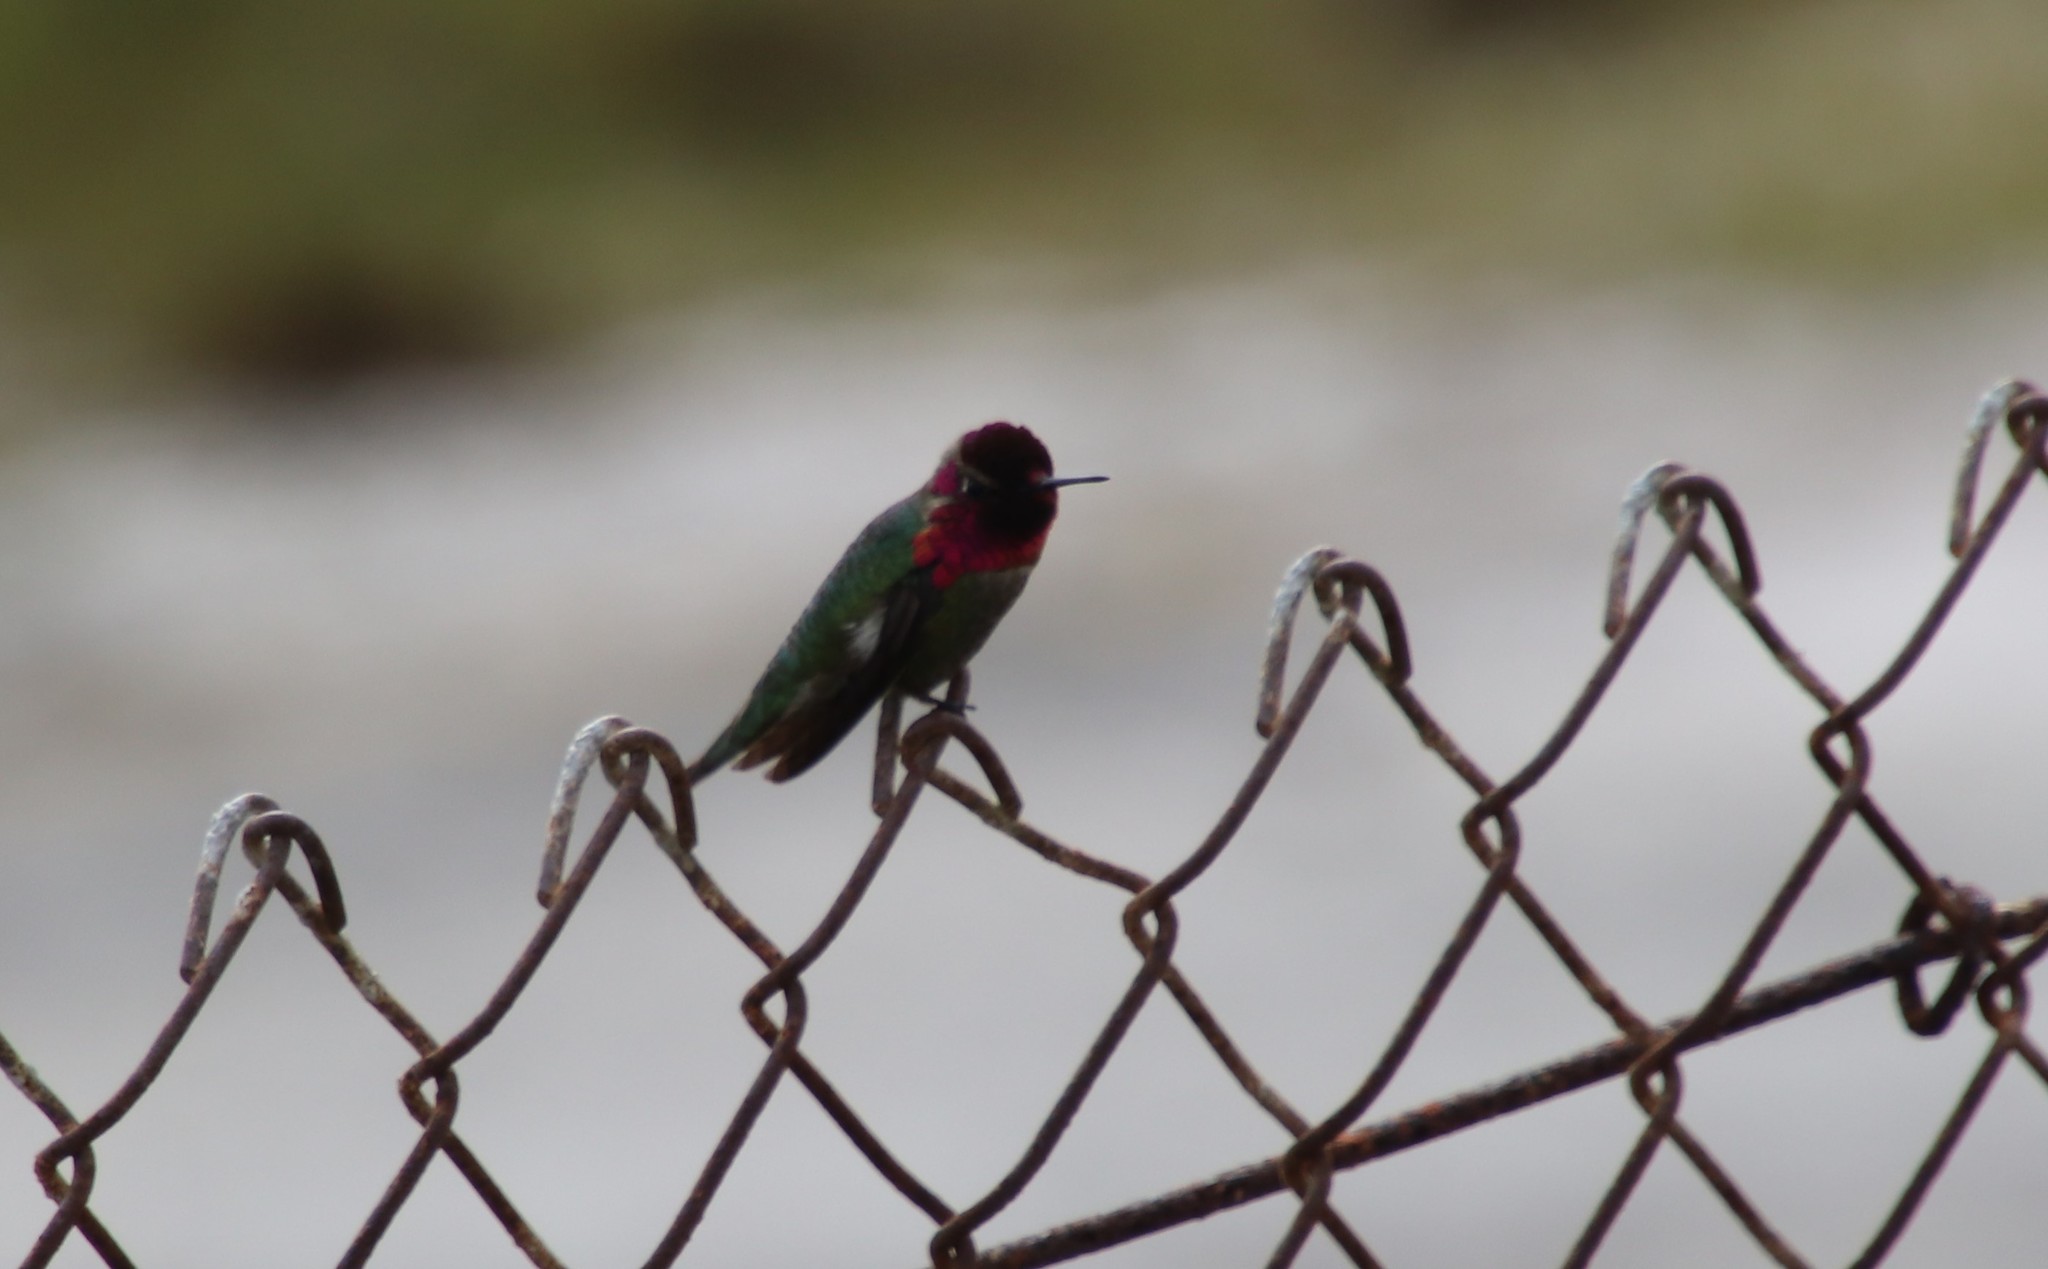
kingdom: Animalia
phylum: Chordata
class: Aves
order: Apodiformes
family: Trochilidae
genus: Calypte
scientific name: Calypte anna
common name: Anna's hummingbird
